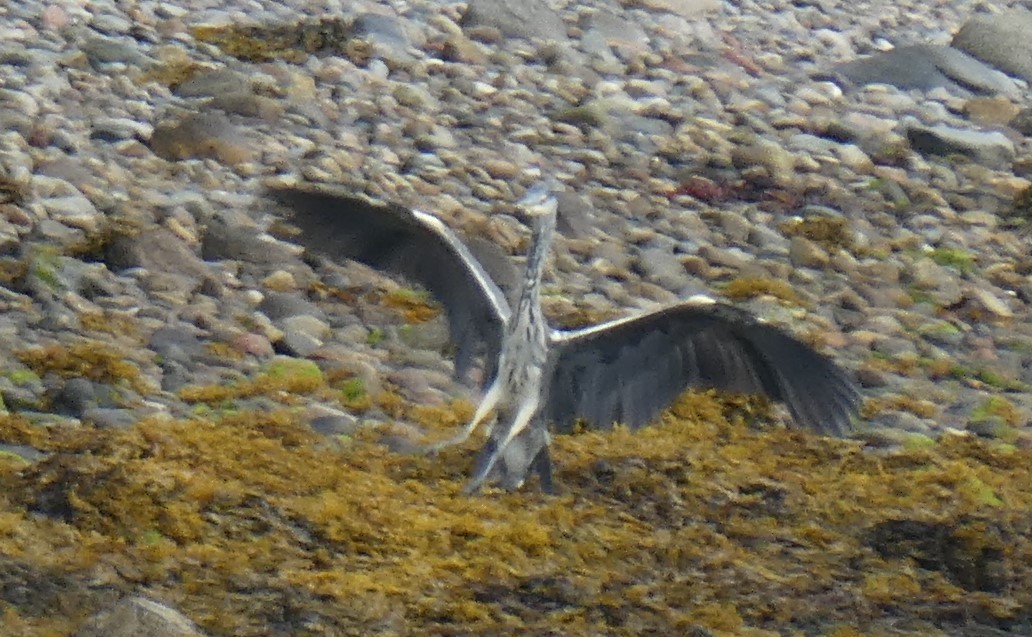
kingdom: Animalia
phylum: Chordata
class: Aves
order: Pelecaniformes
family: Ardeidae
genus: Ardea
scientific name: Ardea cinerea
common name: Grey heron
